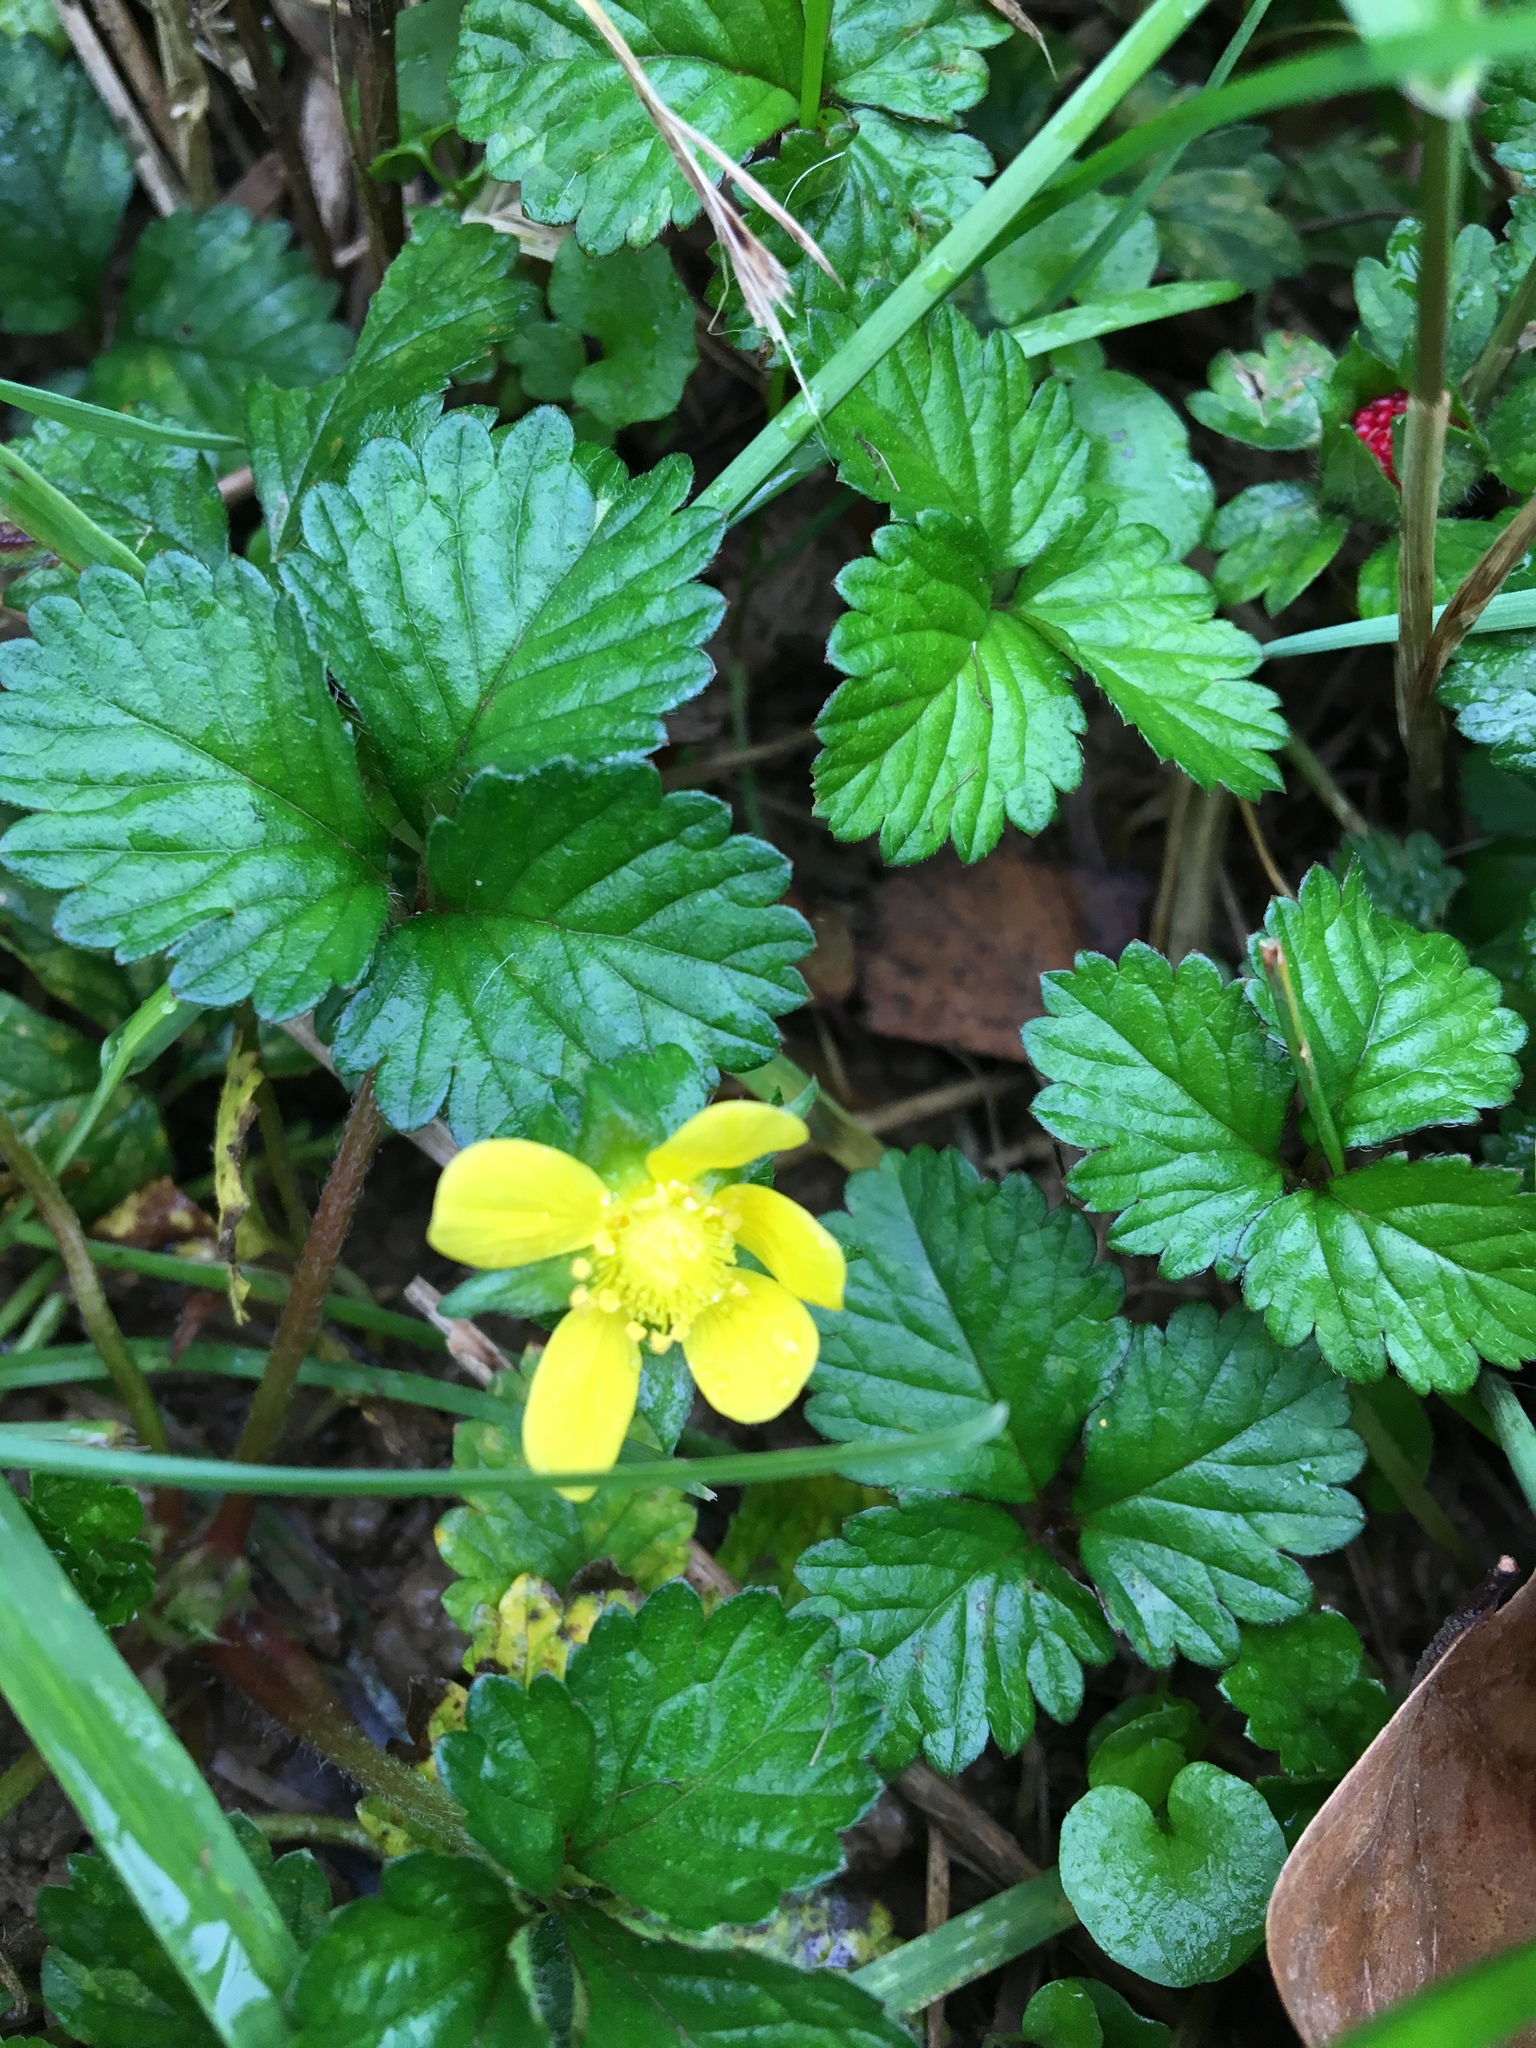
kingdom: Plantae
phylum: Tracheophyta
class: Magnoliopsida
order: Rosales
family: Rosaceae
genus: Potentilla
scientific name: Potentilla indica
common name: Yellow-flowered strawberry
